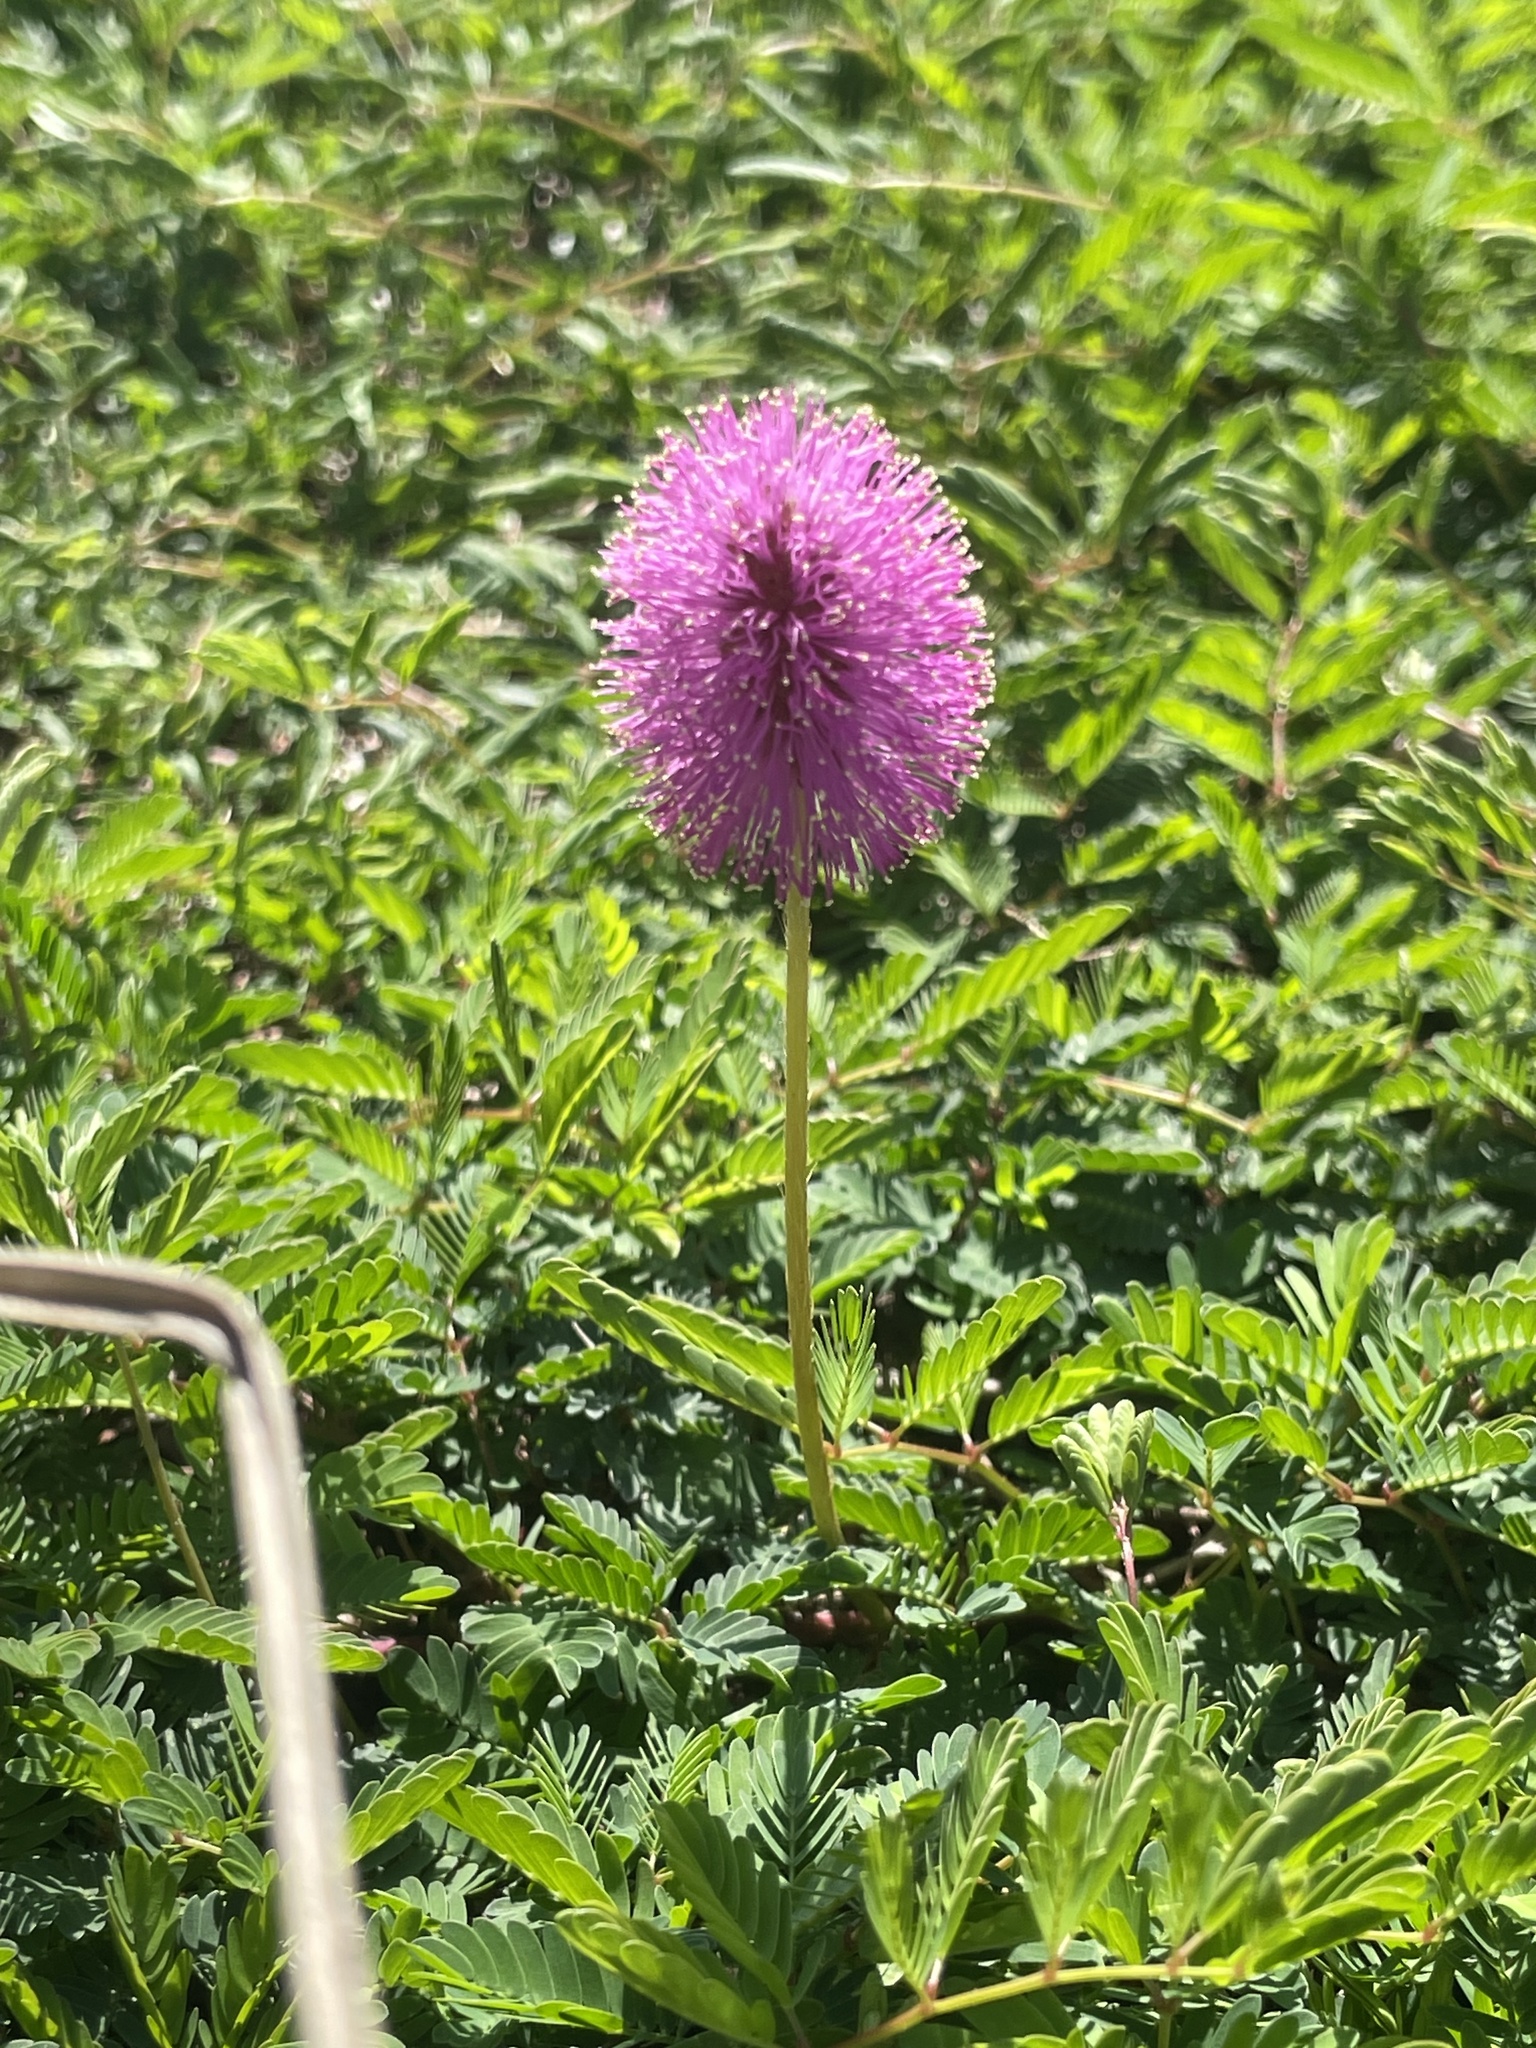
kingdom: Plantae
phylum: Tracheophyta
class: Magnoliopsida
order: Fabales
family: Fabaceae
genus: Mimosa
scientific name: Mimosa strigillosa
